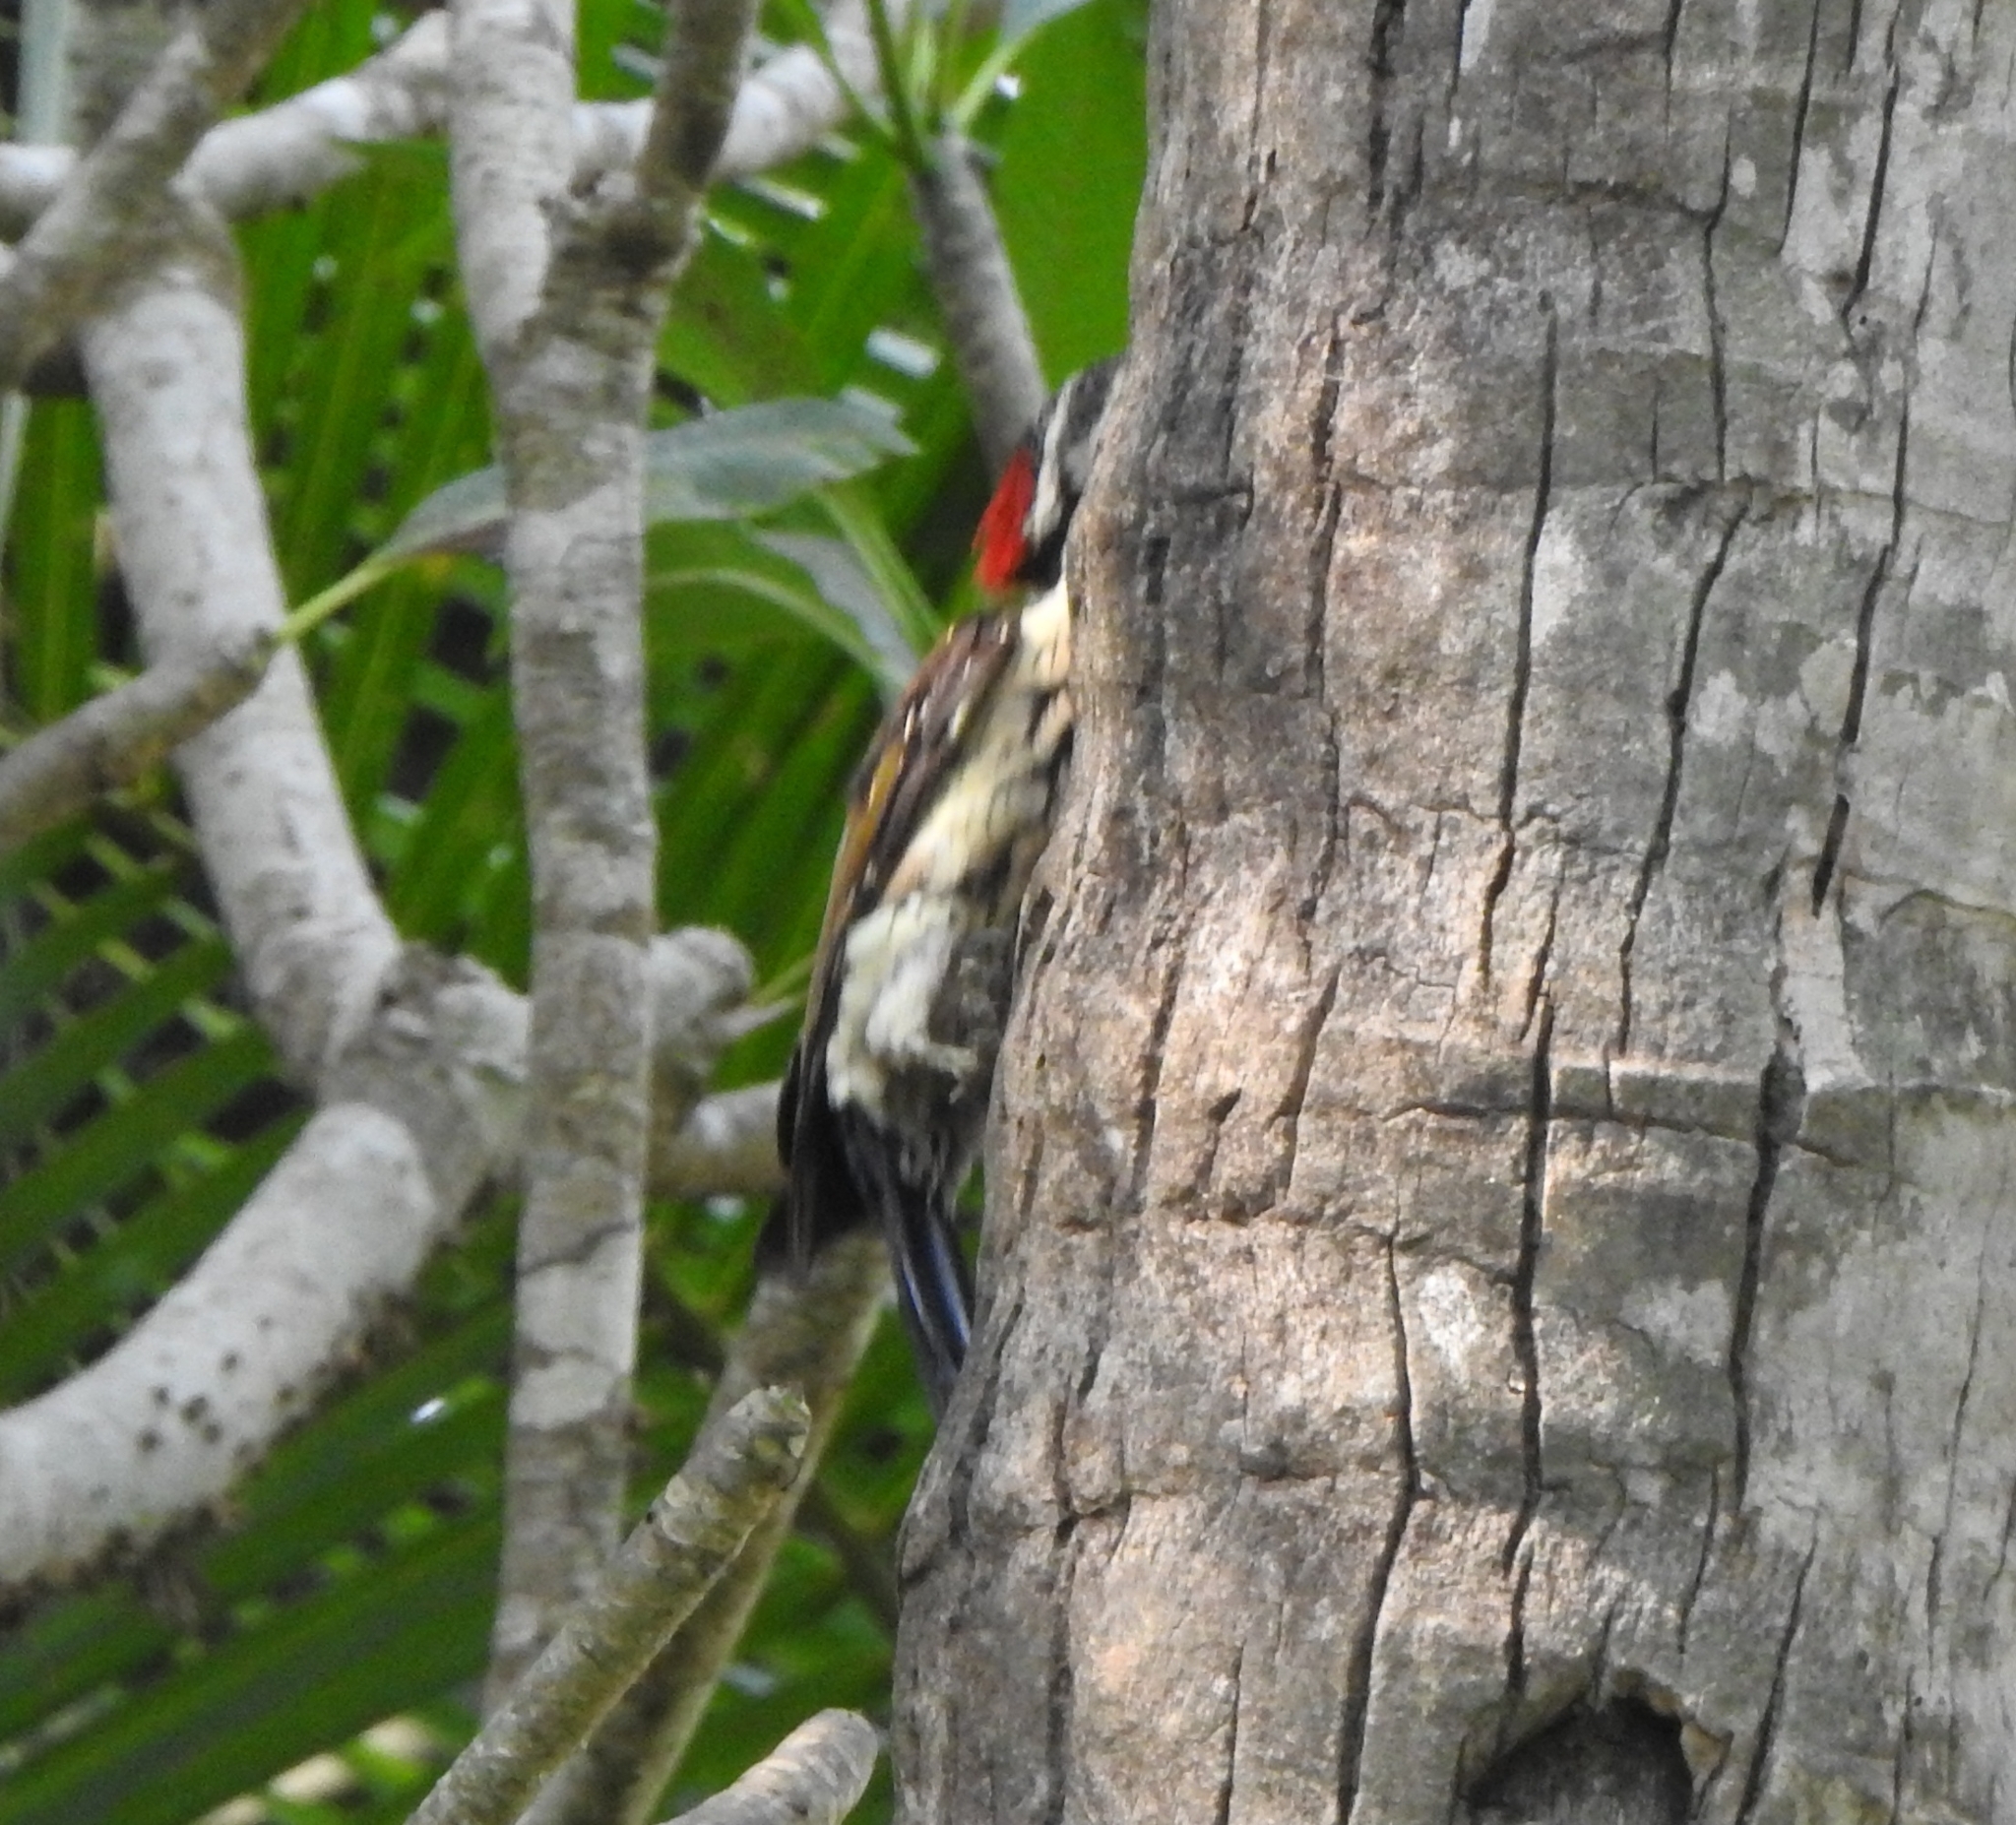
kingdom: Animalia
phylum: Chordata
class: Aves
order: Piciformes
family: Picidae
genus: Dinopium
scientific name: Dinopium benghalense
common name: Black-rumped flameback
